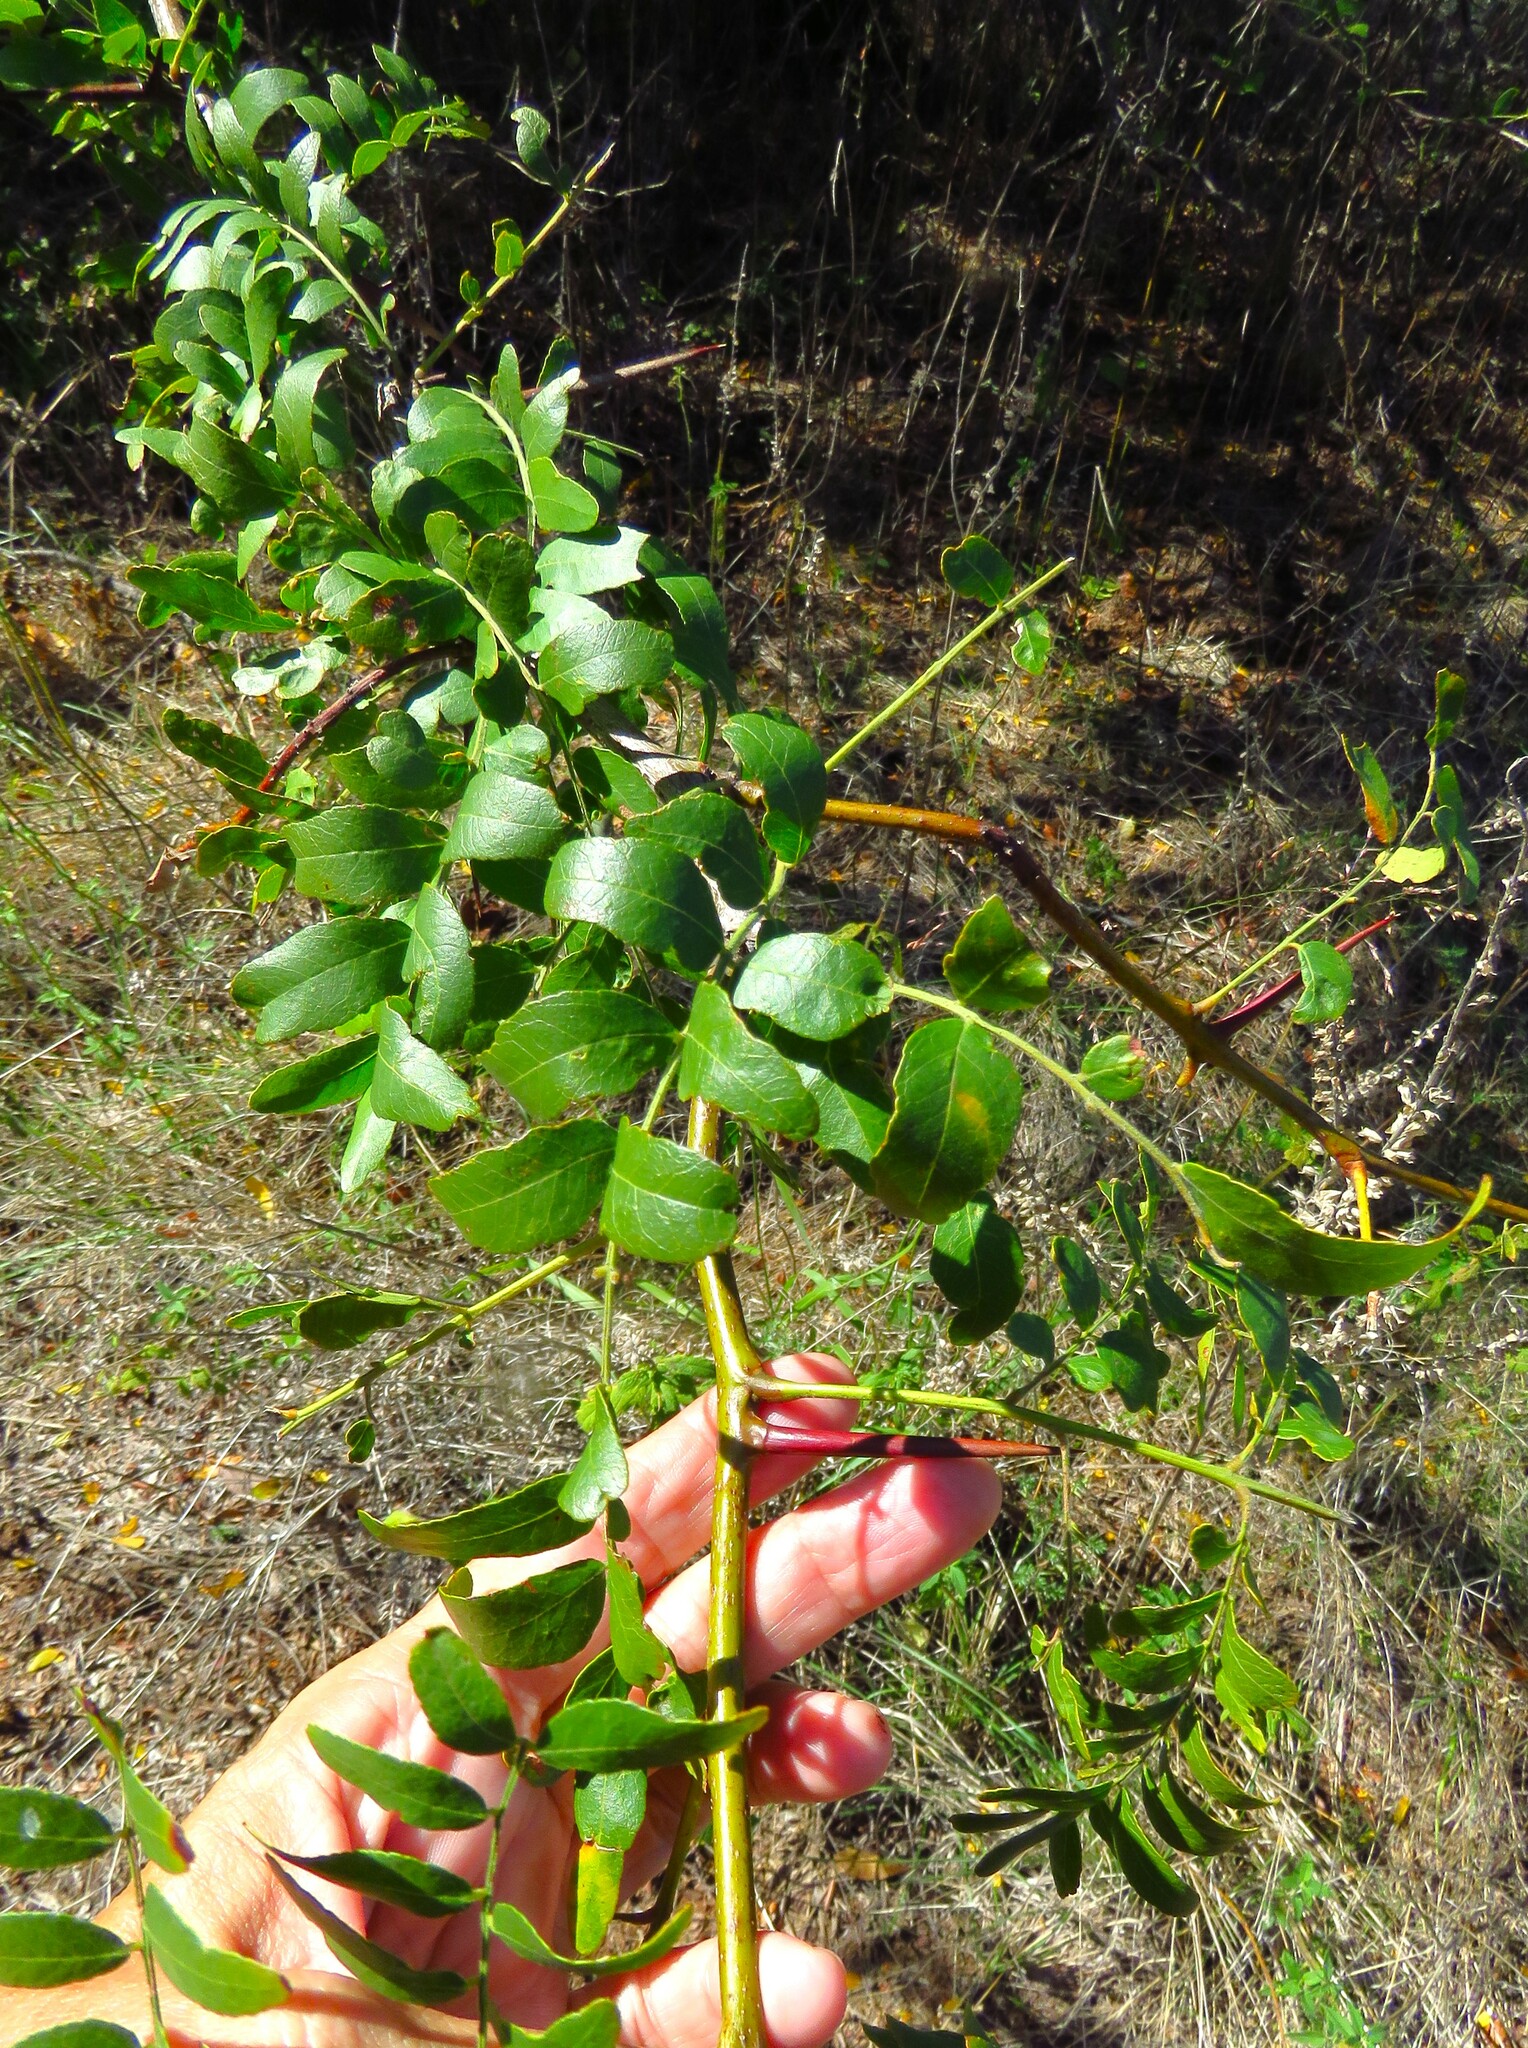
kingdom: Plantae
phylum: Tracheophyta
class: Magnoliopsida
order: Fabales
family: Fabaceae
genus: Gleditsia
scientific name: Gleditsia triacanthos
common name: Common honeylocust
